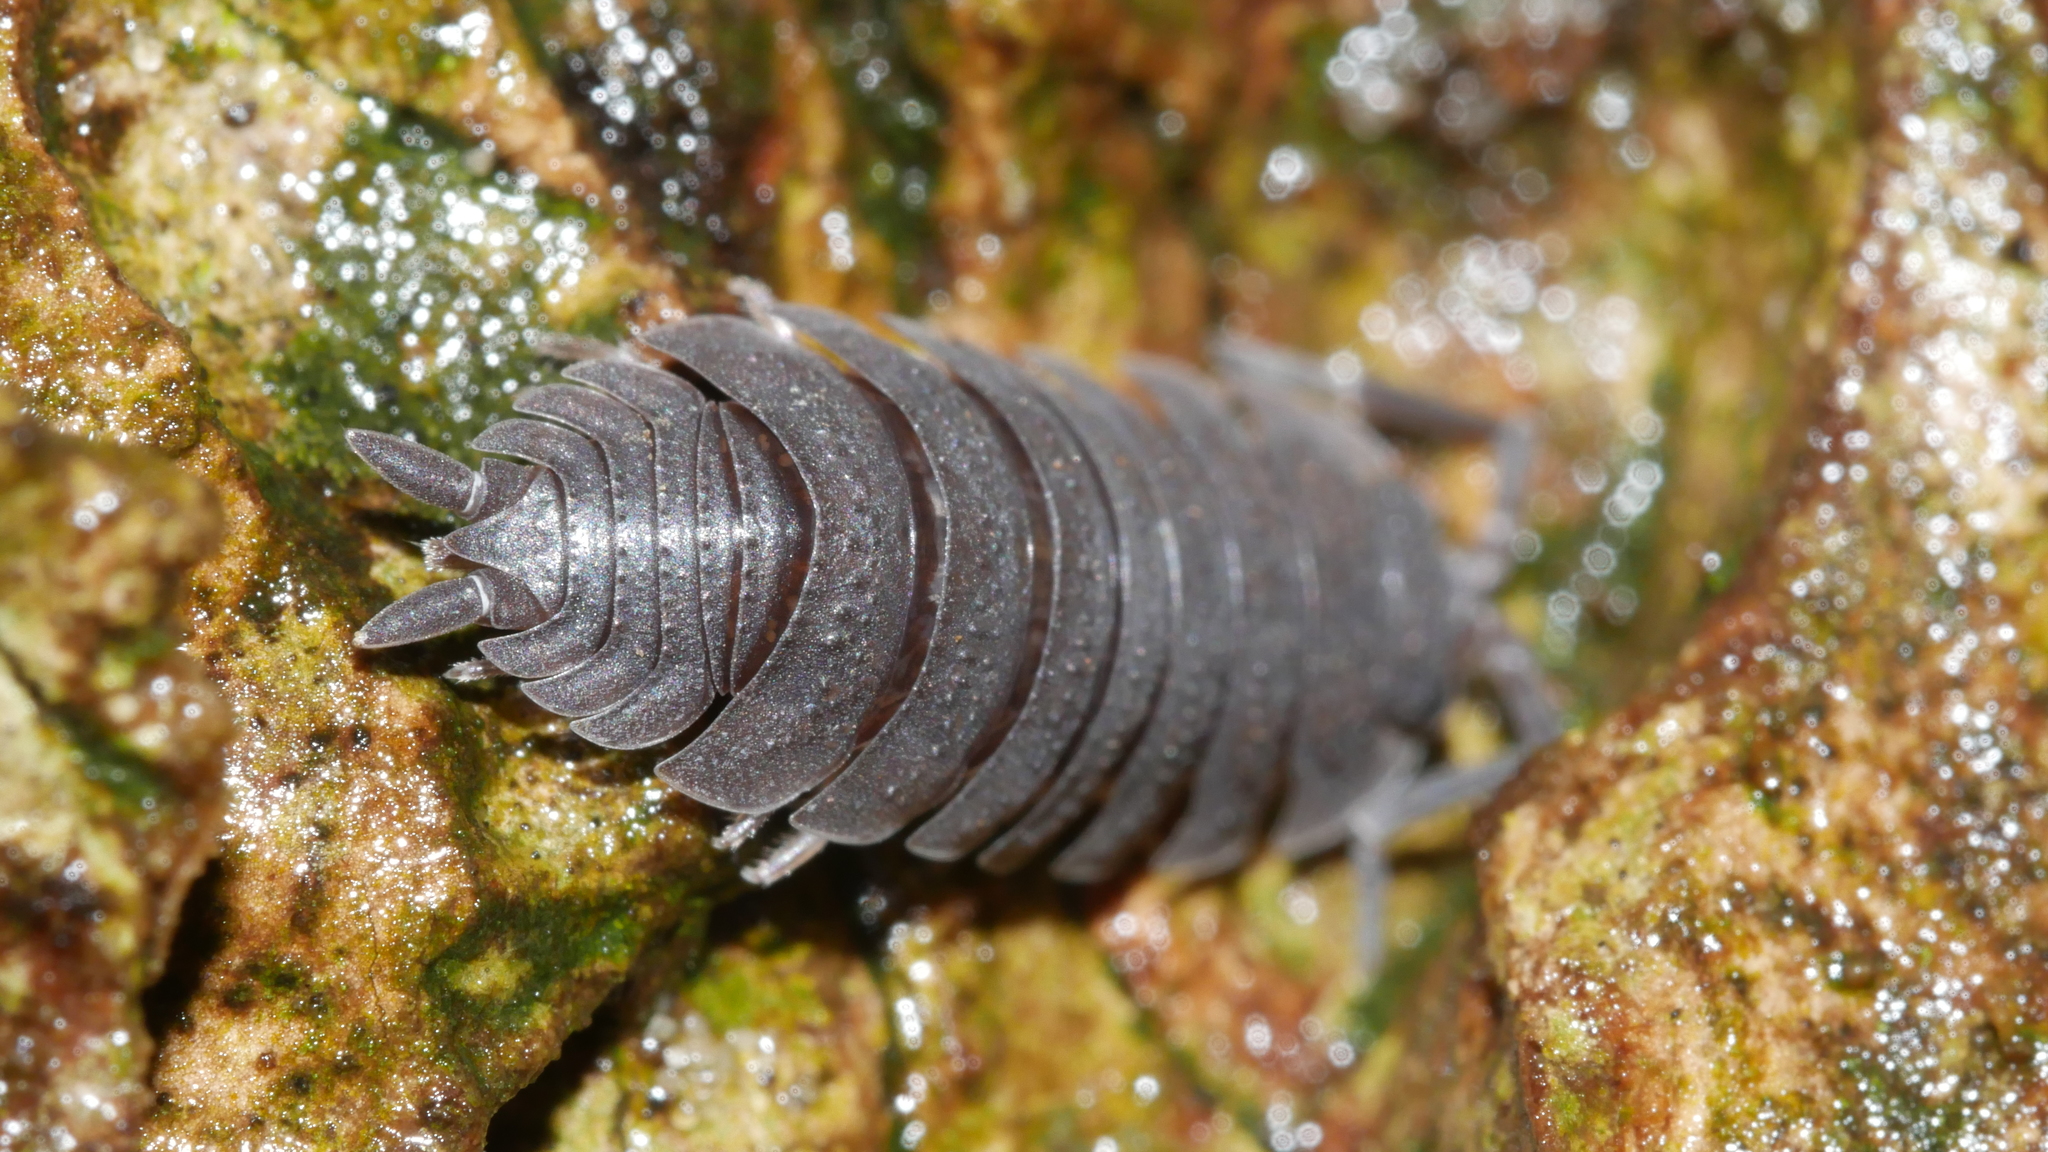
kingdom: Animalia
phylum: Arthropoda
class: Malacostraca
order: Isopoda
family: Porcellionidae
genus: Porcellio
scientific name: Porcellio scaber
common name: Common rough woodlouse
